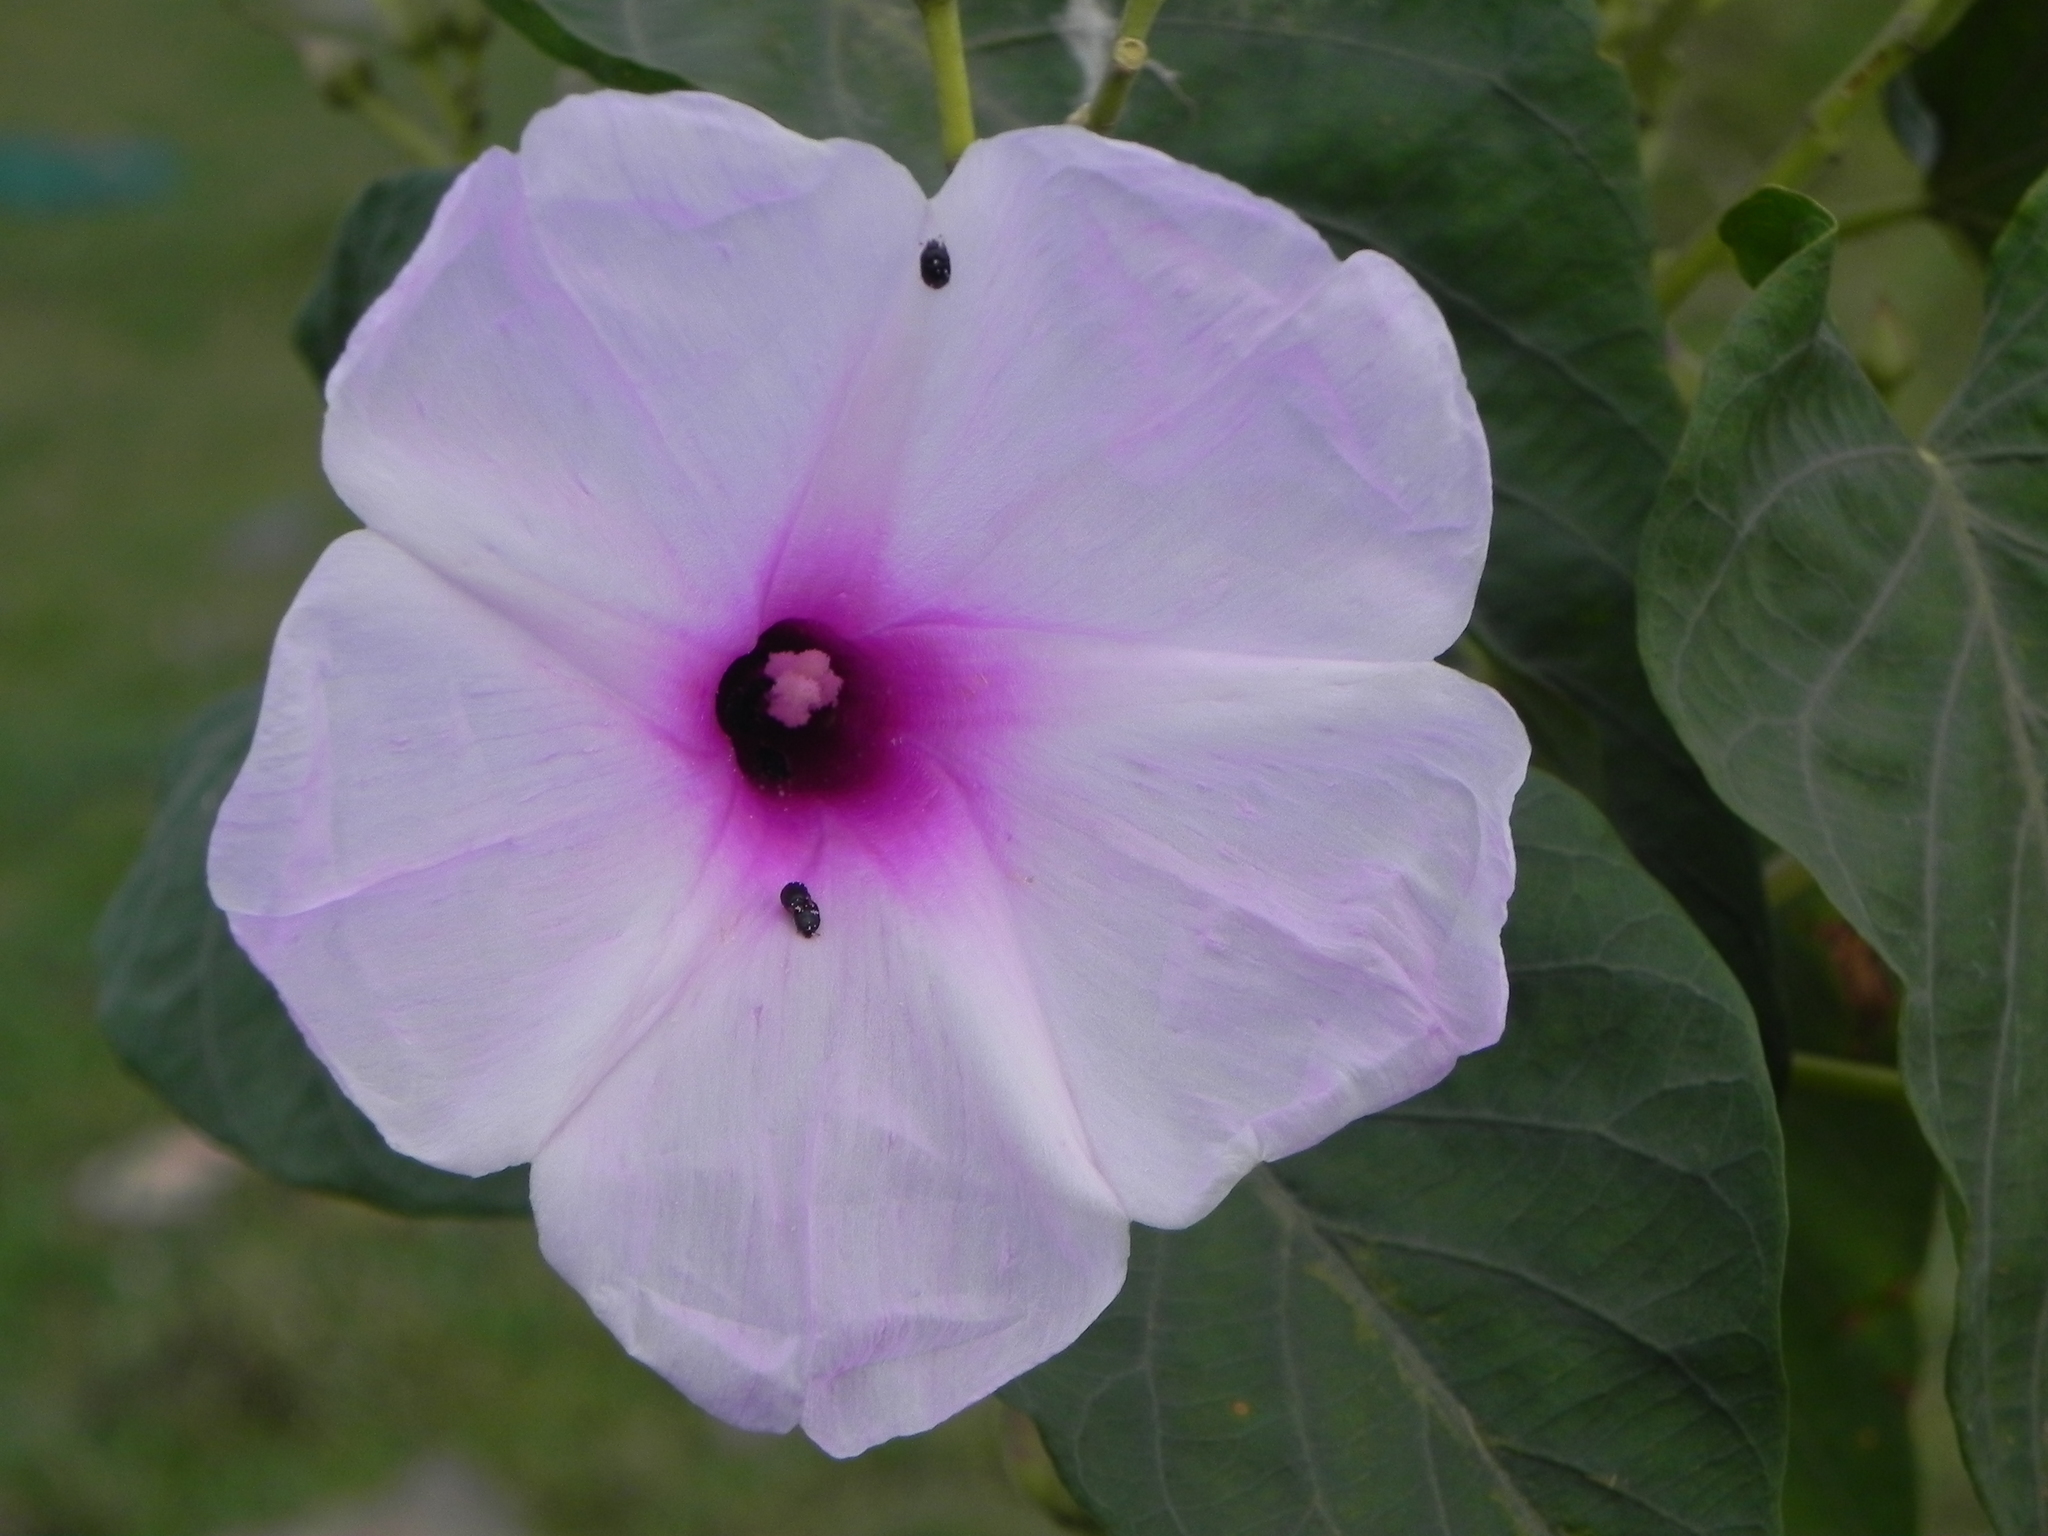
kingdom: Plantae
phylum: Tracheophyta
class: Magnoliopsida
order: Solanales
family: Convolvulaceae
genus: Ipomoea
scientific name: Ipomoea carnea
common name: Morning-glory
